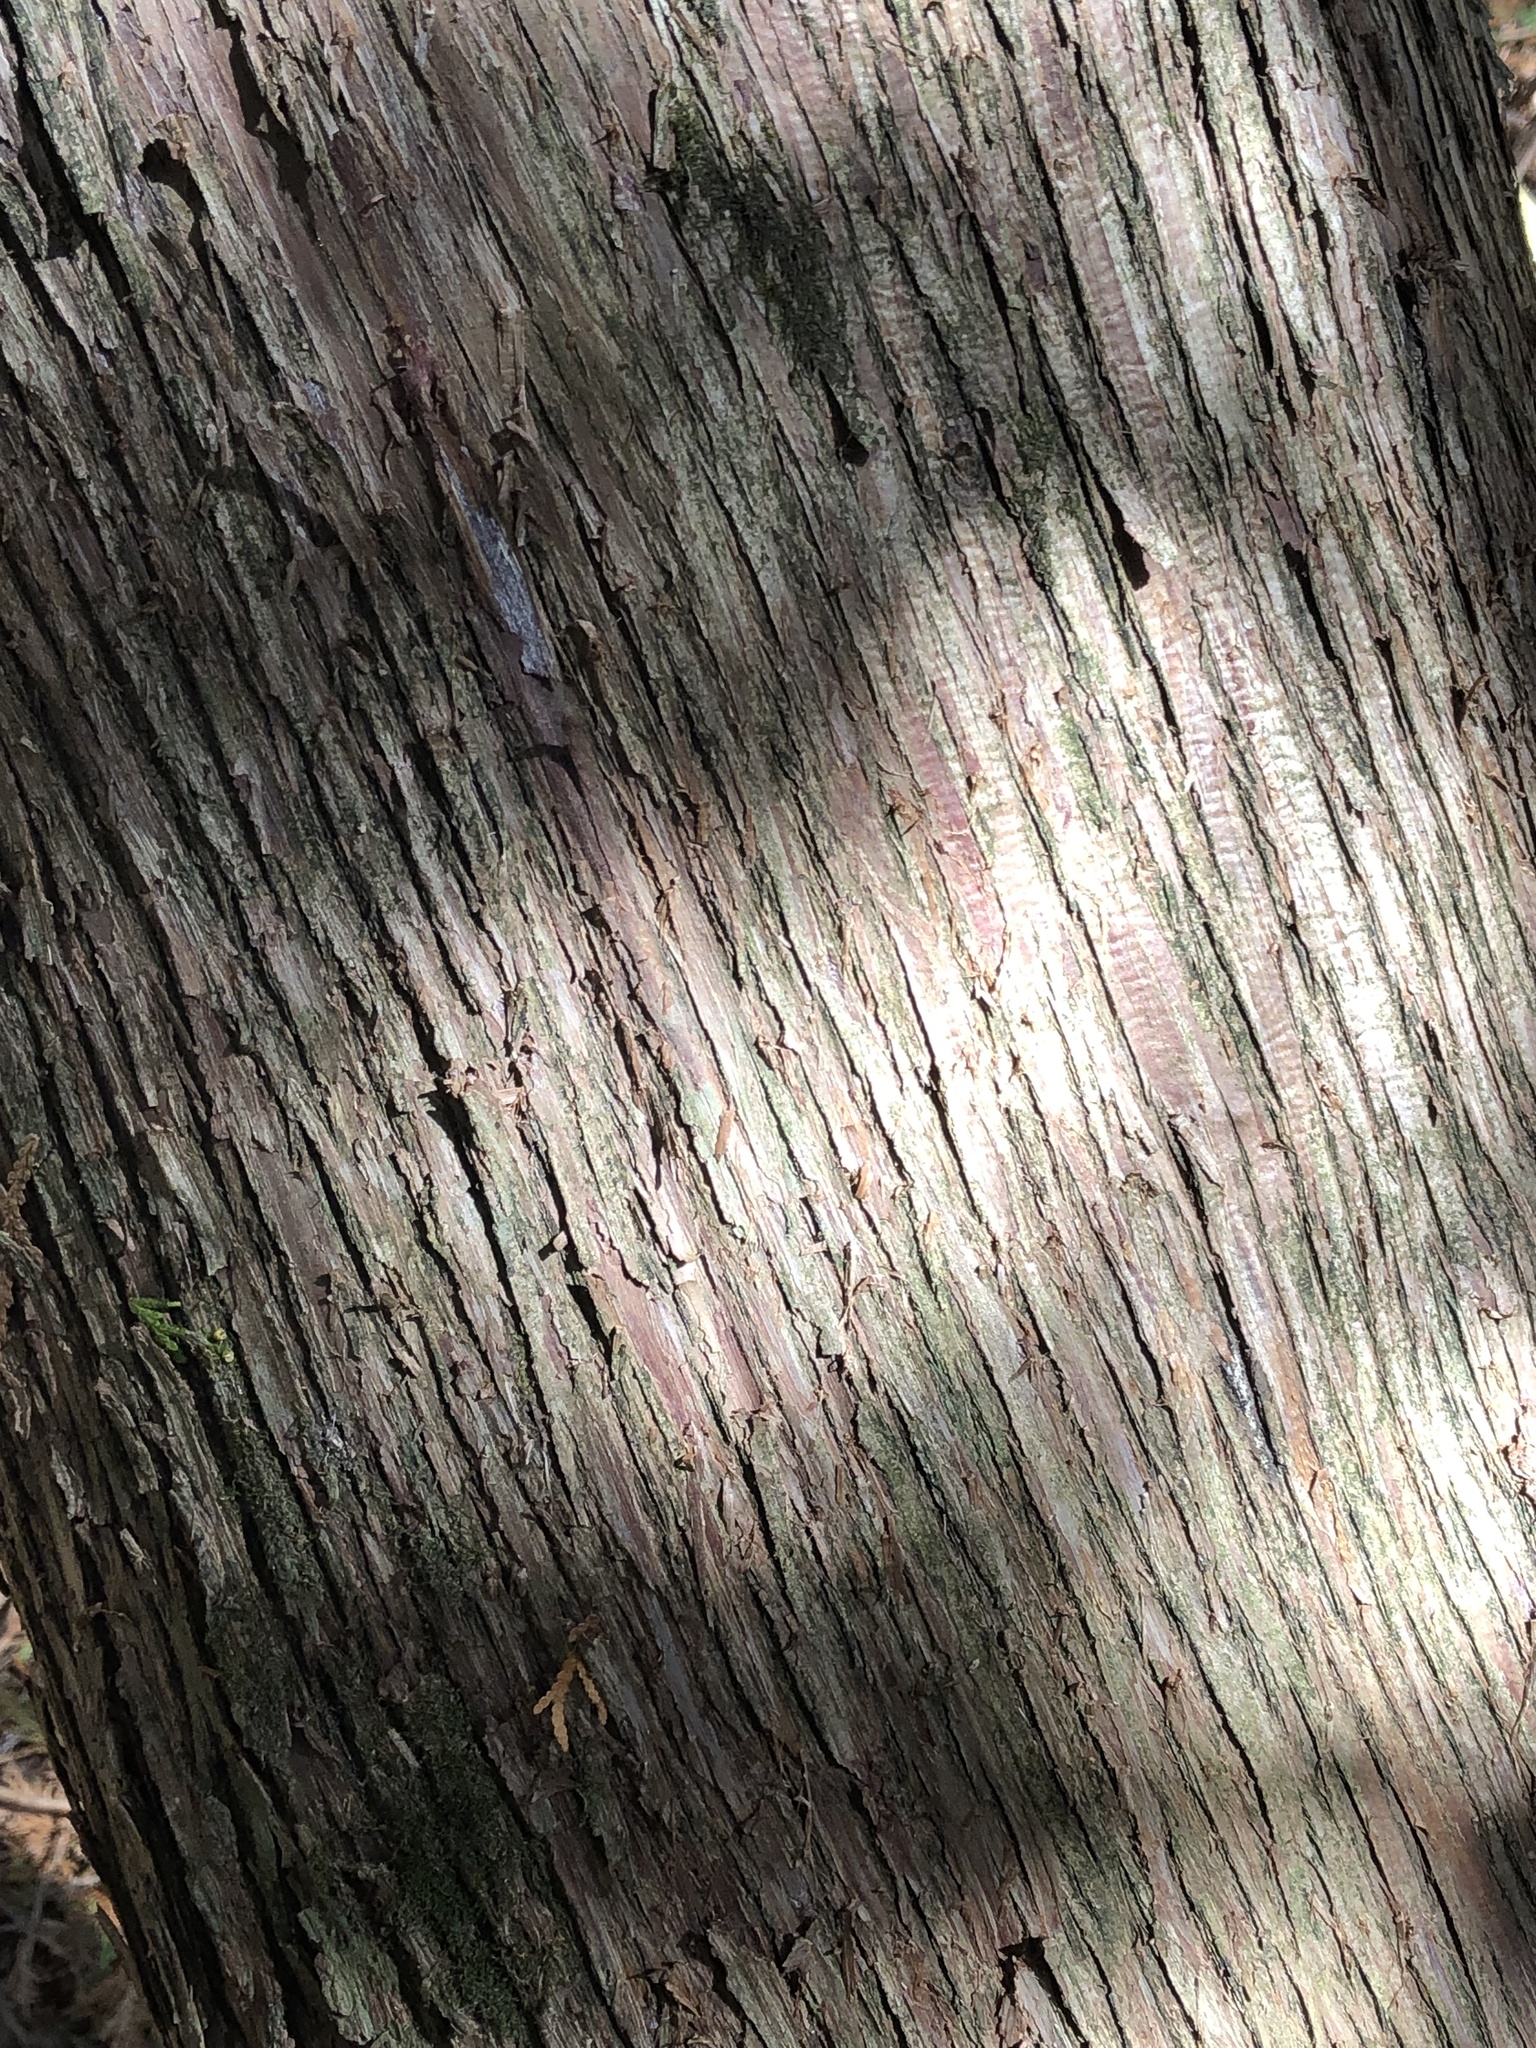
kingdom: Plantae
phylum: Tracheophyta
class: Pinopsida
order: Pinales
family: Cupressaceae
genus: Thuja
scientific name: Thuja occidentalis
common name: Northern white-cedar
